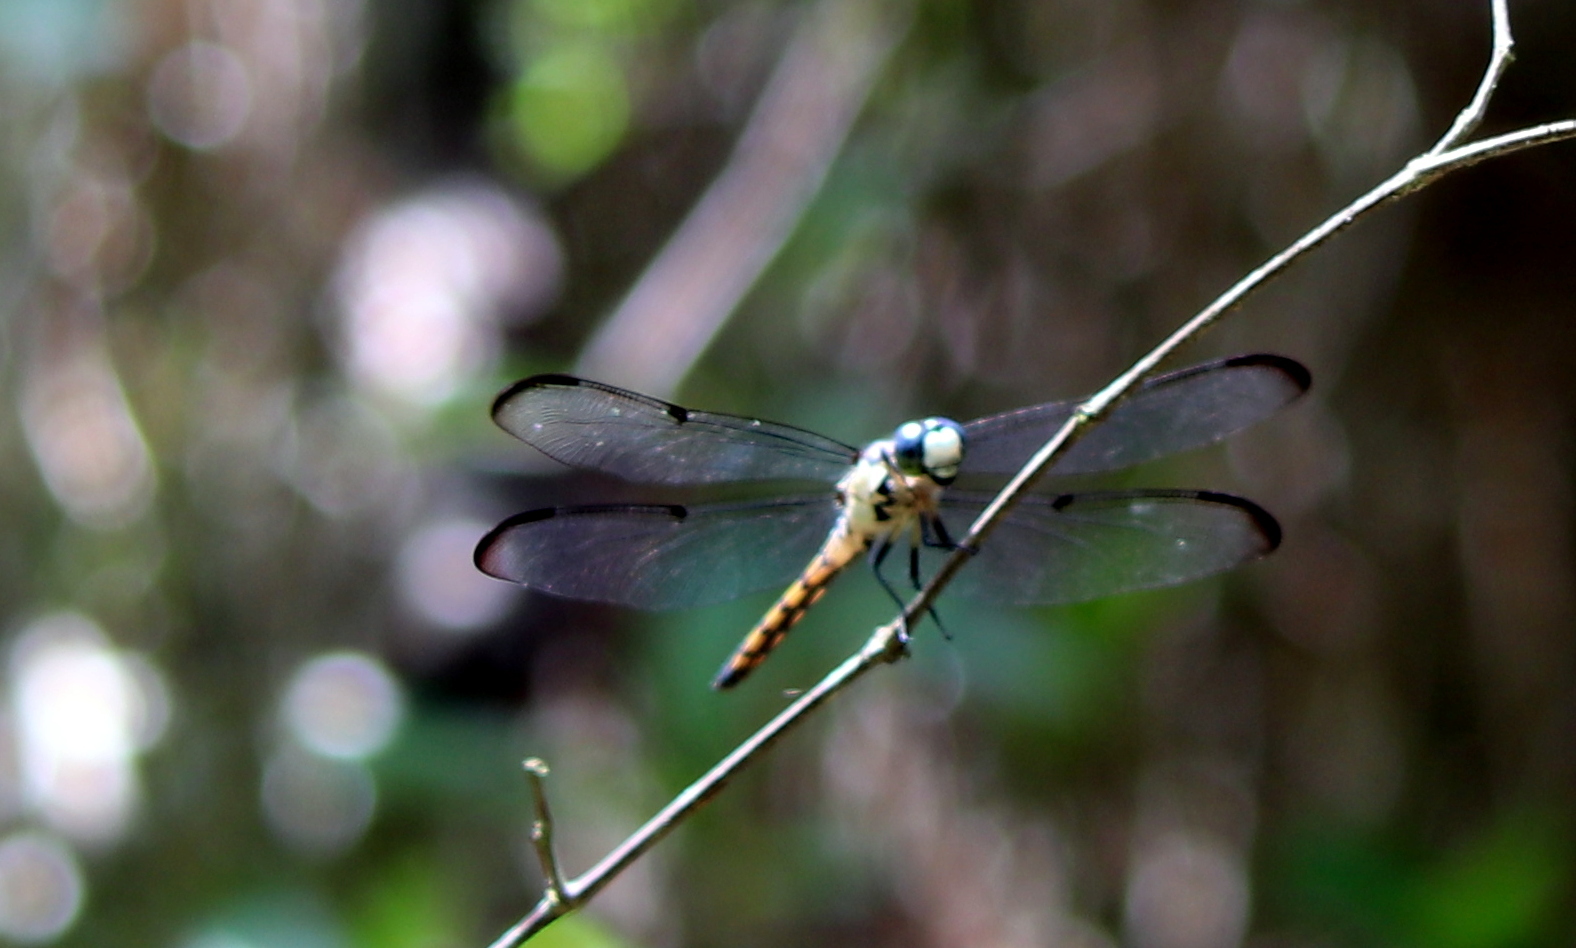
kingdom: Animalia
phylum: Arthropoda
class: Insecta
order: Odonata
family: Libellulidae
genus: Libellula
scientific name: Libellula vibrans
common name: Great blue skimmer
